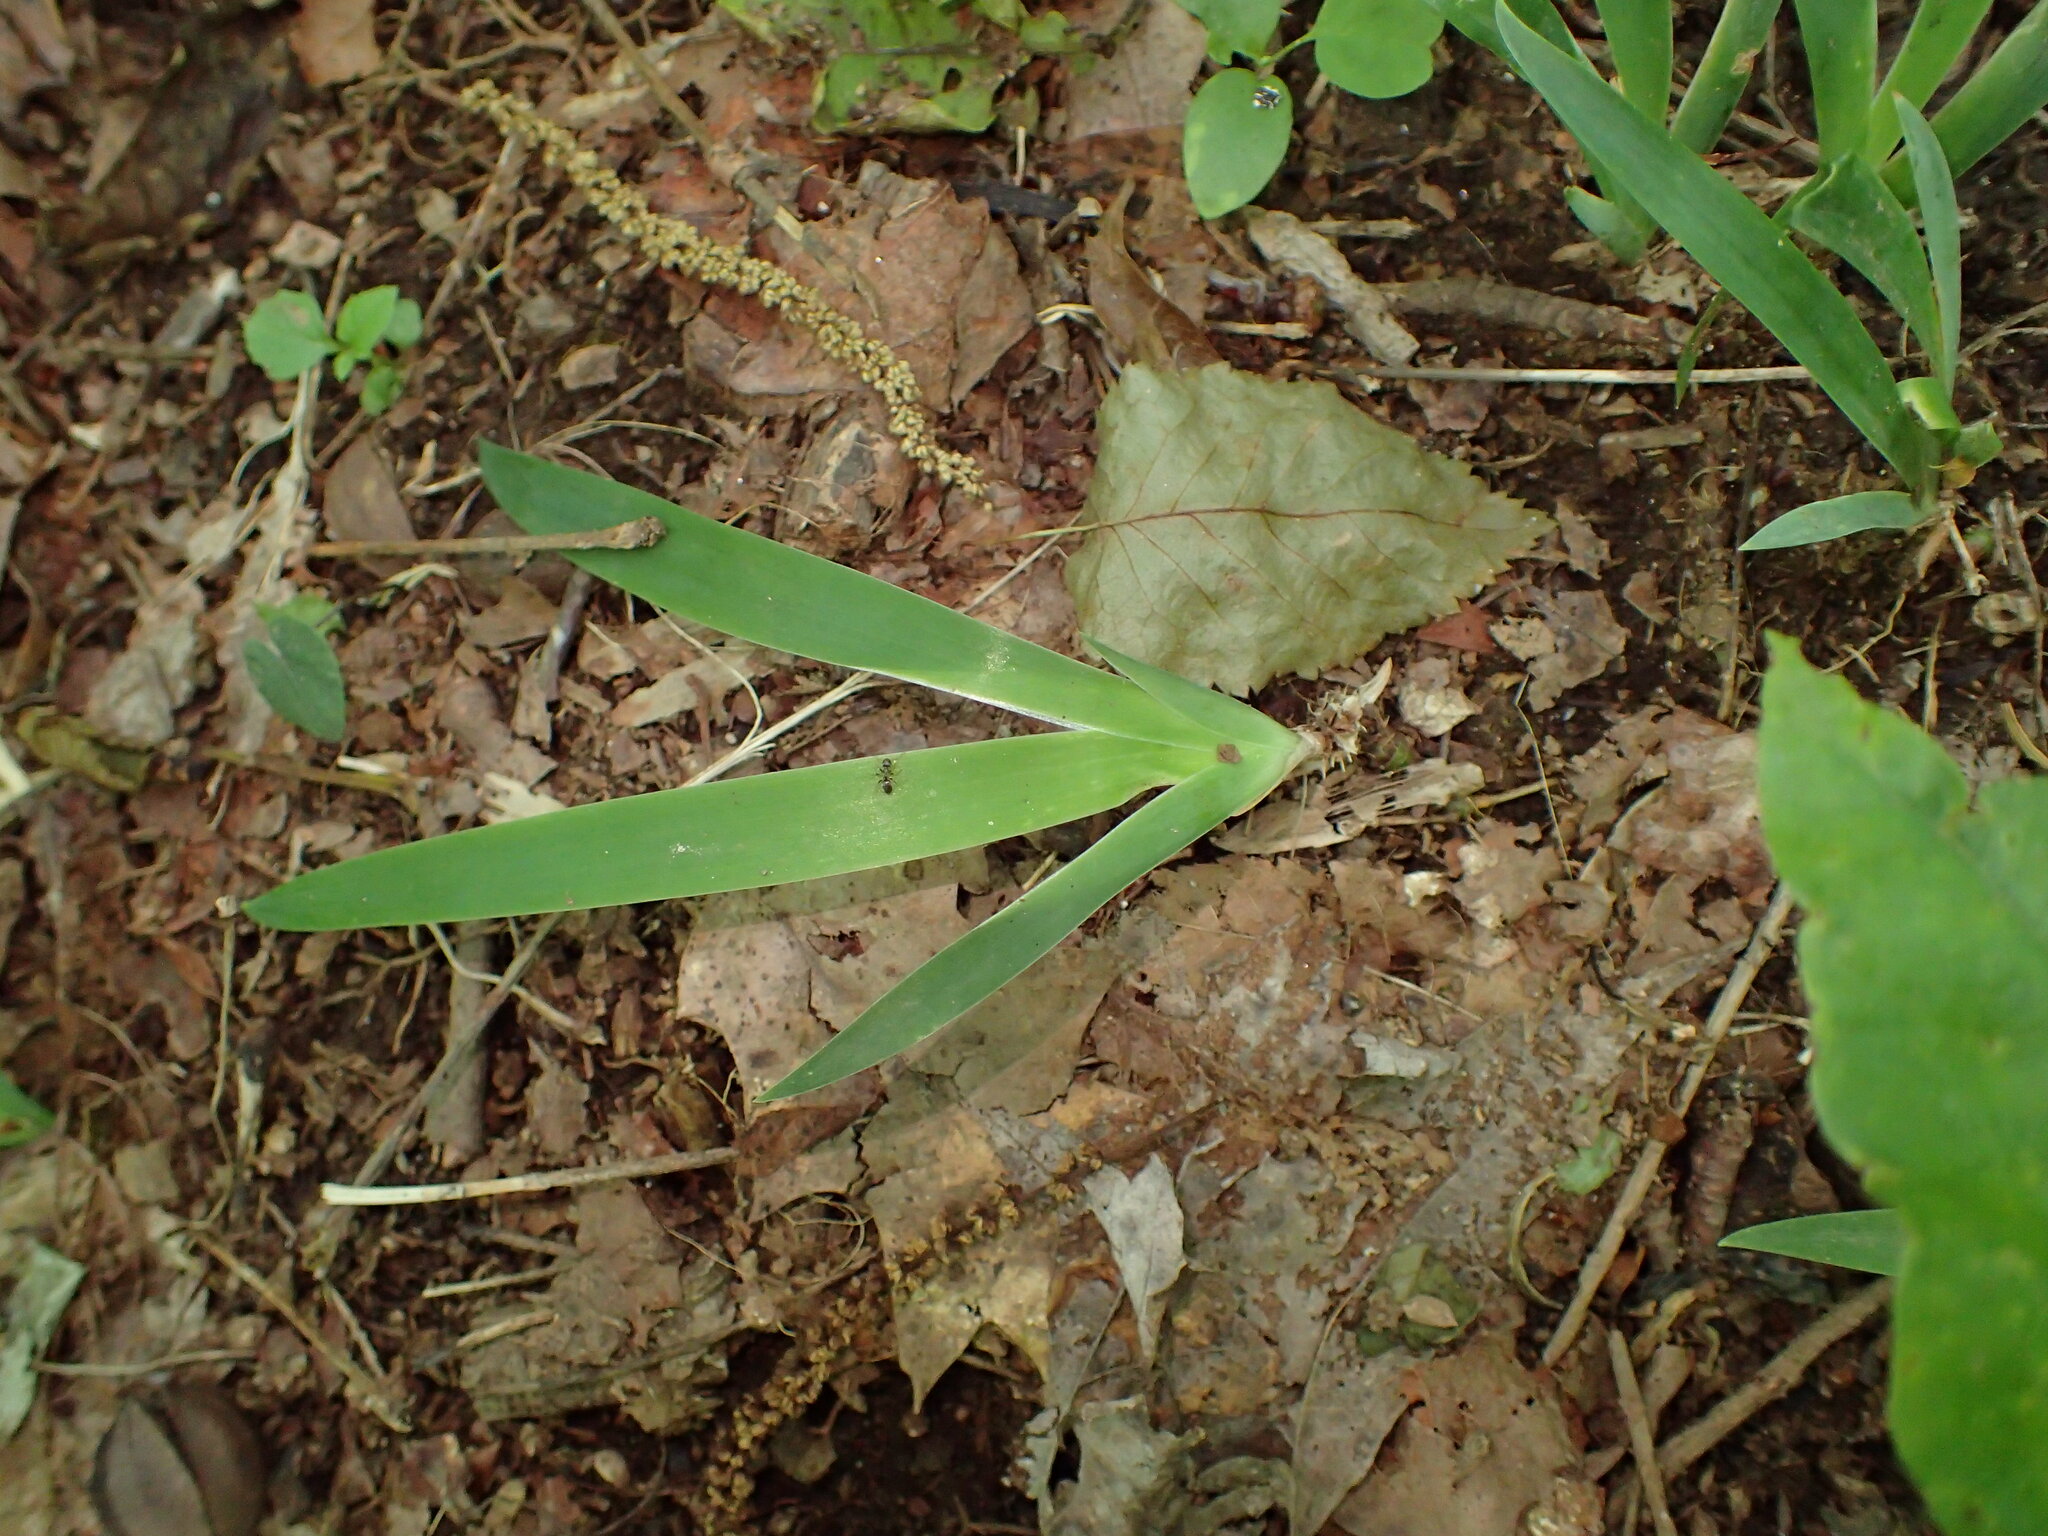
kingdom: Plantae
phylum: Tracheophyta
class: Liliopsida
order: Asparagales
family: Iridaceae
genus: Iris
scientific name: Iris cristata
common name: Crested iris
